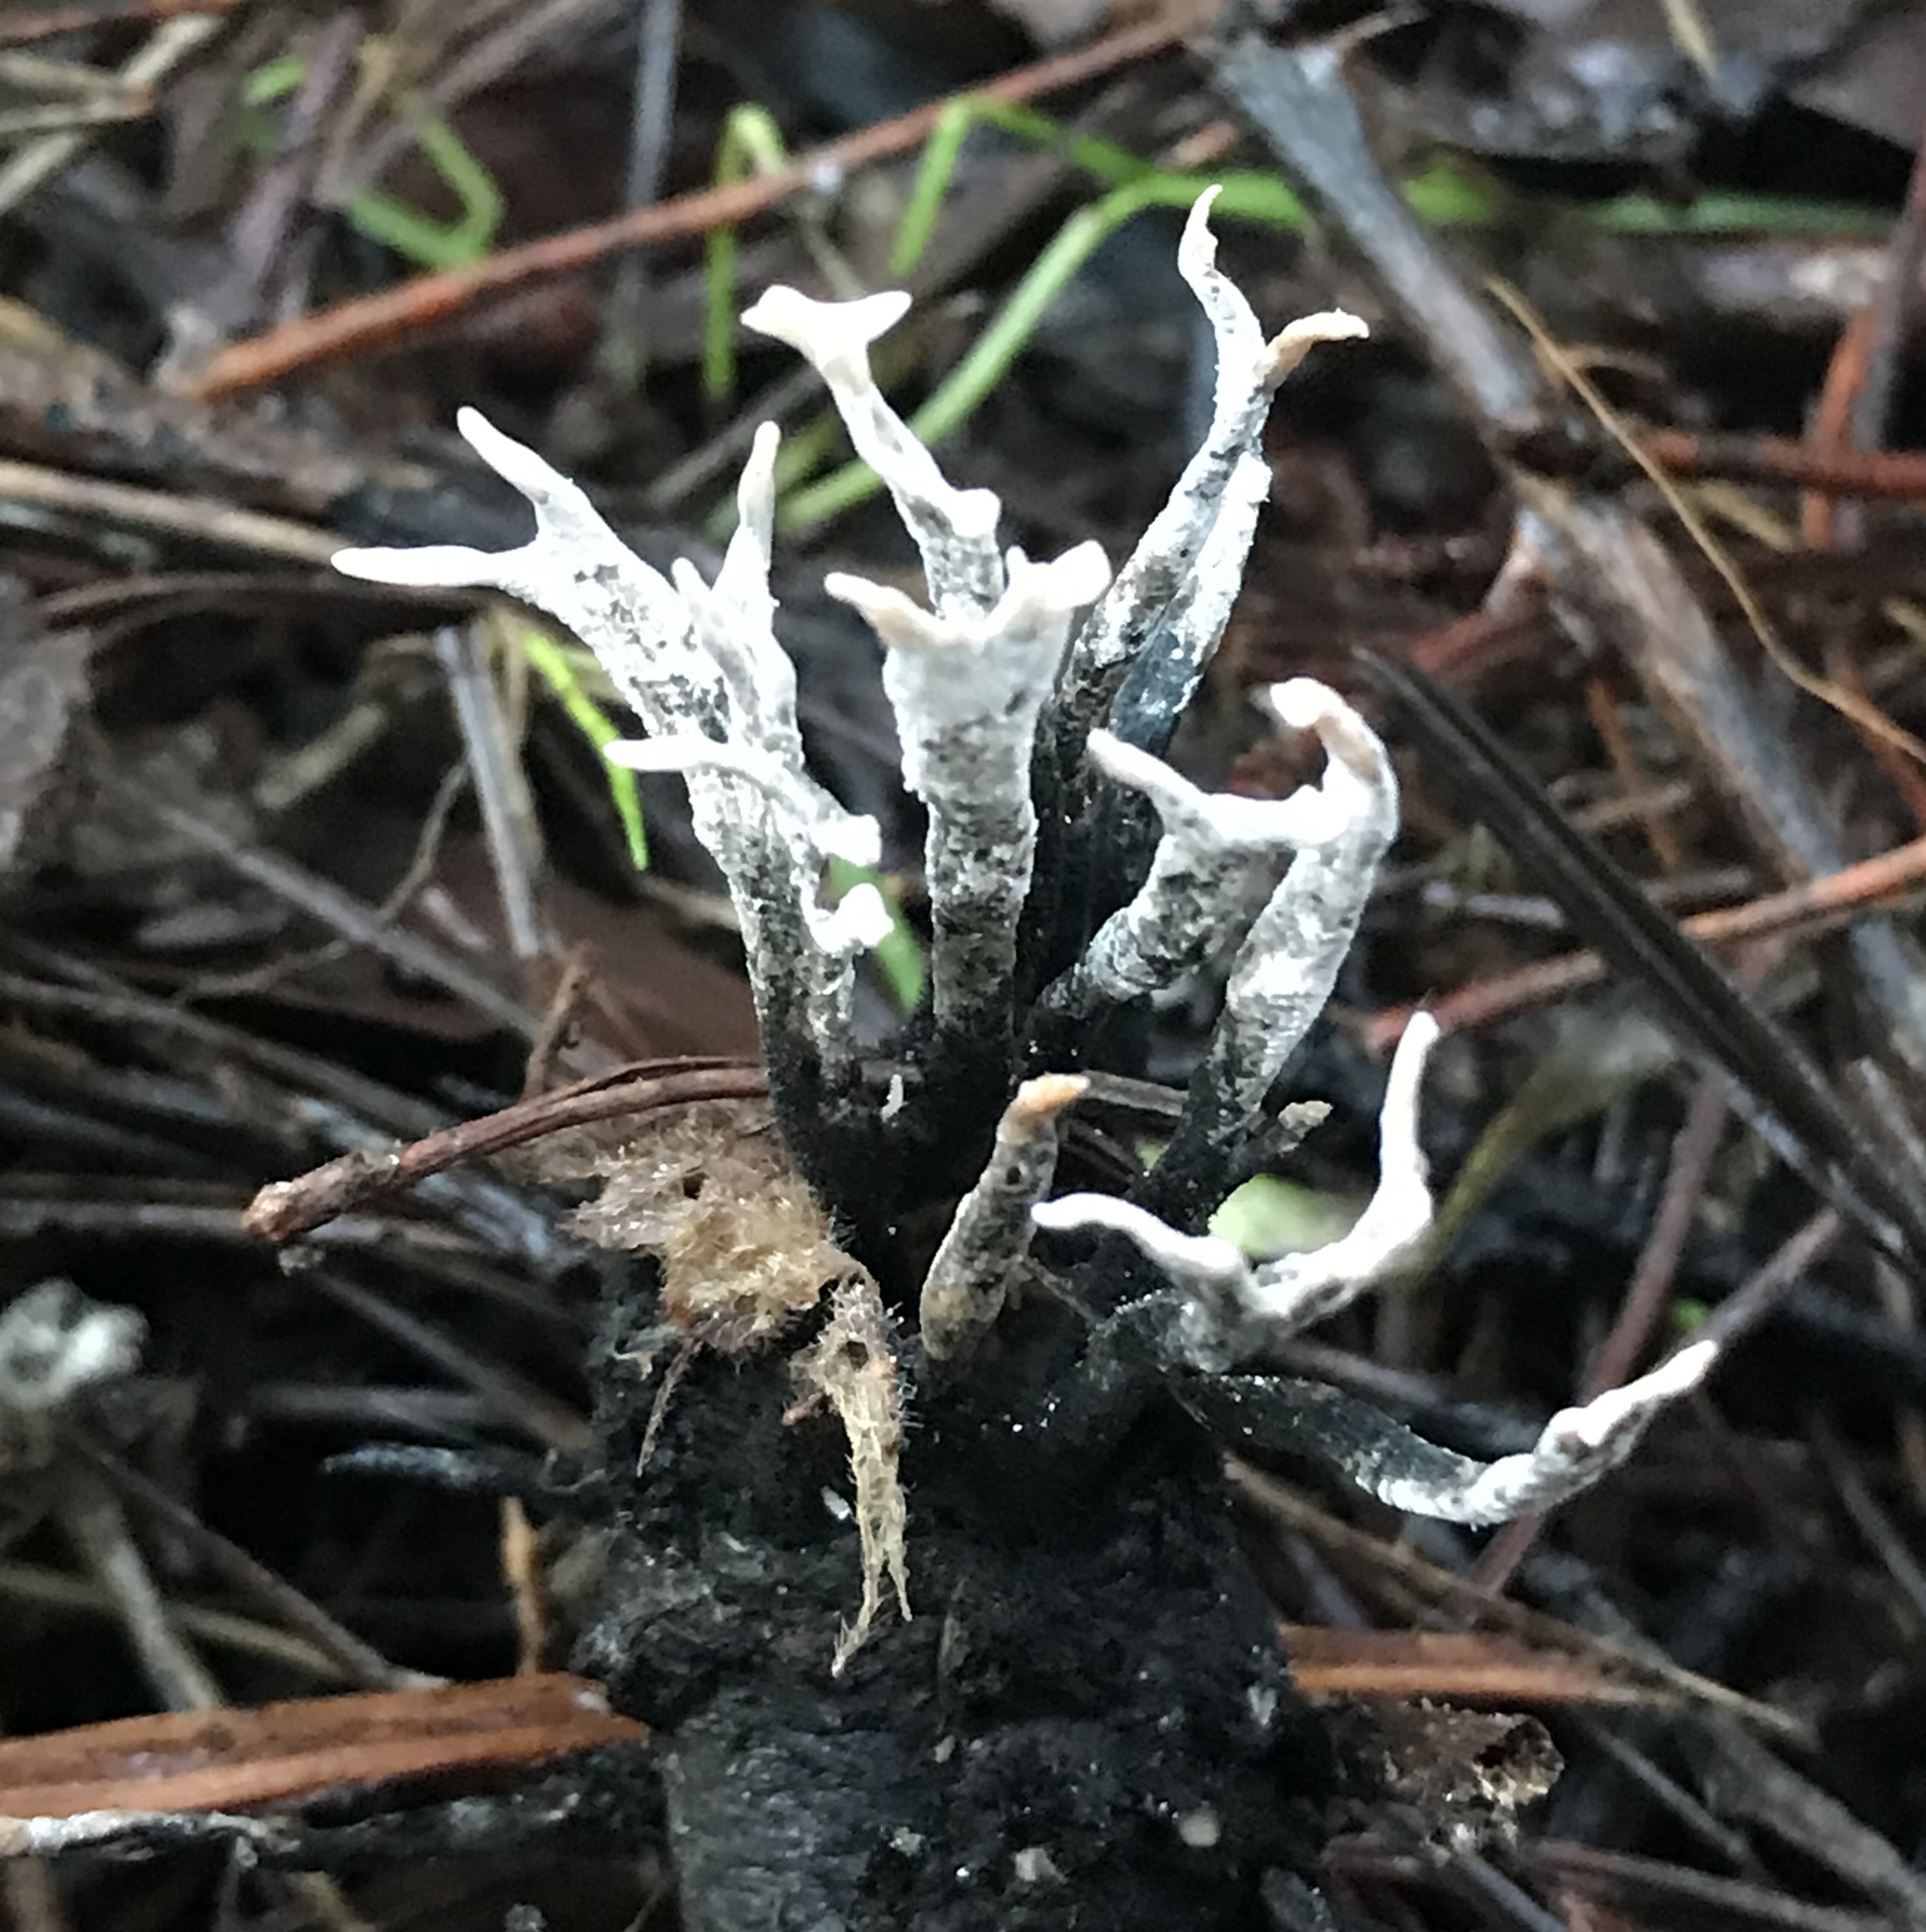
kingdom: Fungi
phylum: Ascomycota
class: Sordariomycetes
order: Xylariales
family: Xylariaceae
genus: Xylaria
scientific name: Xylaria hypoxylon
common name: Candle-snuff fungus
